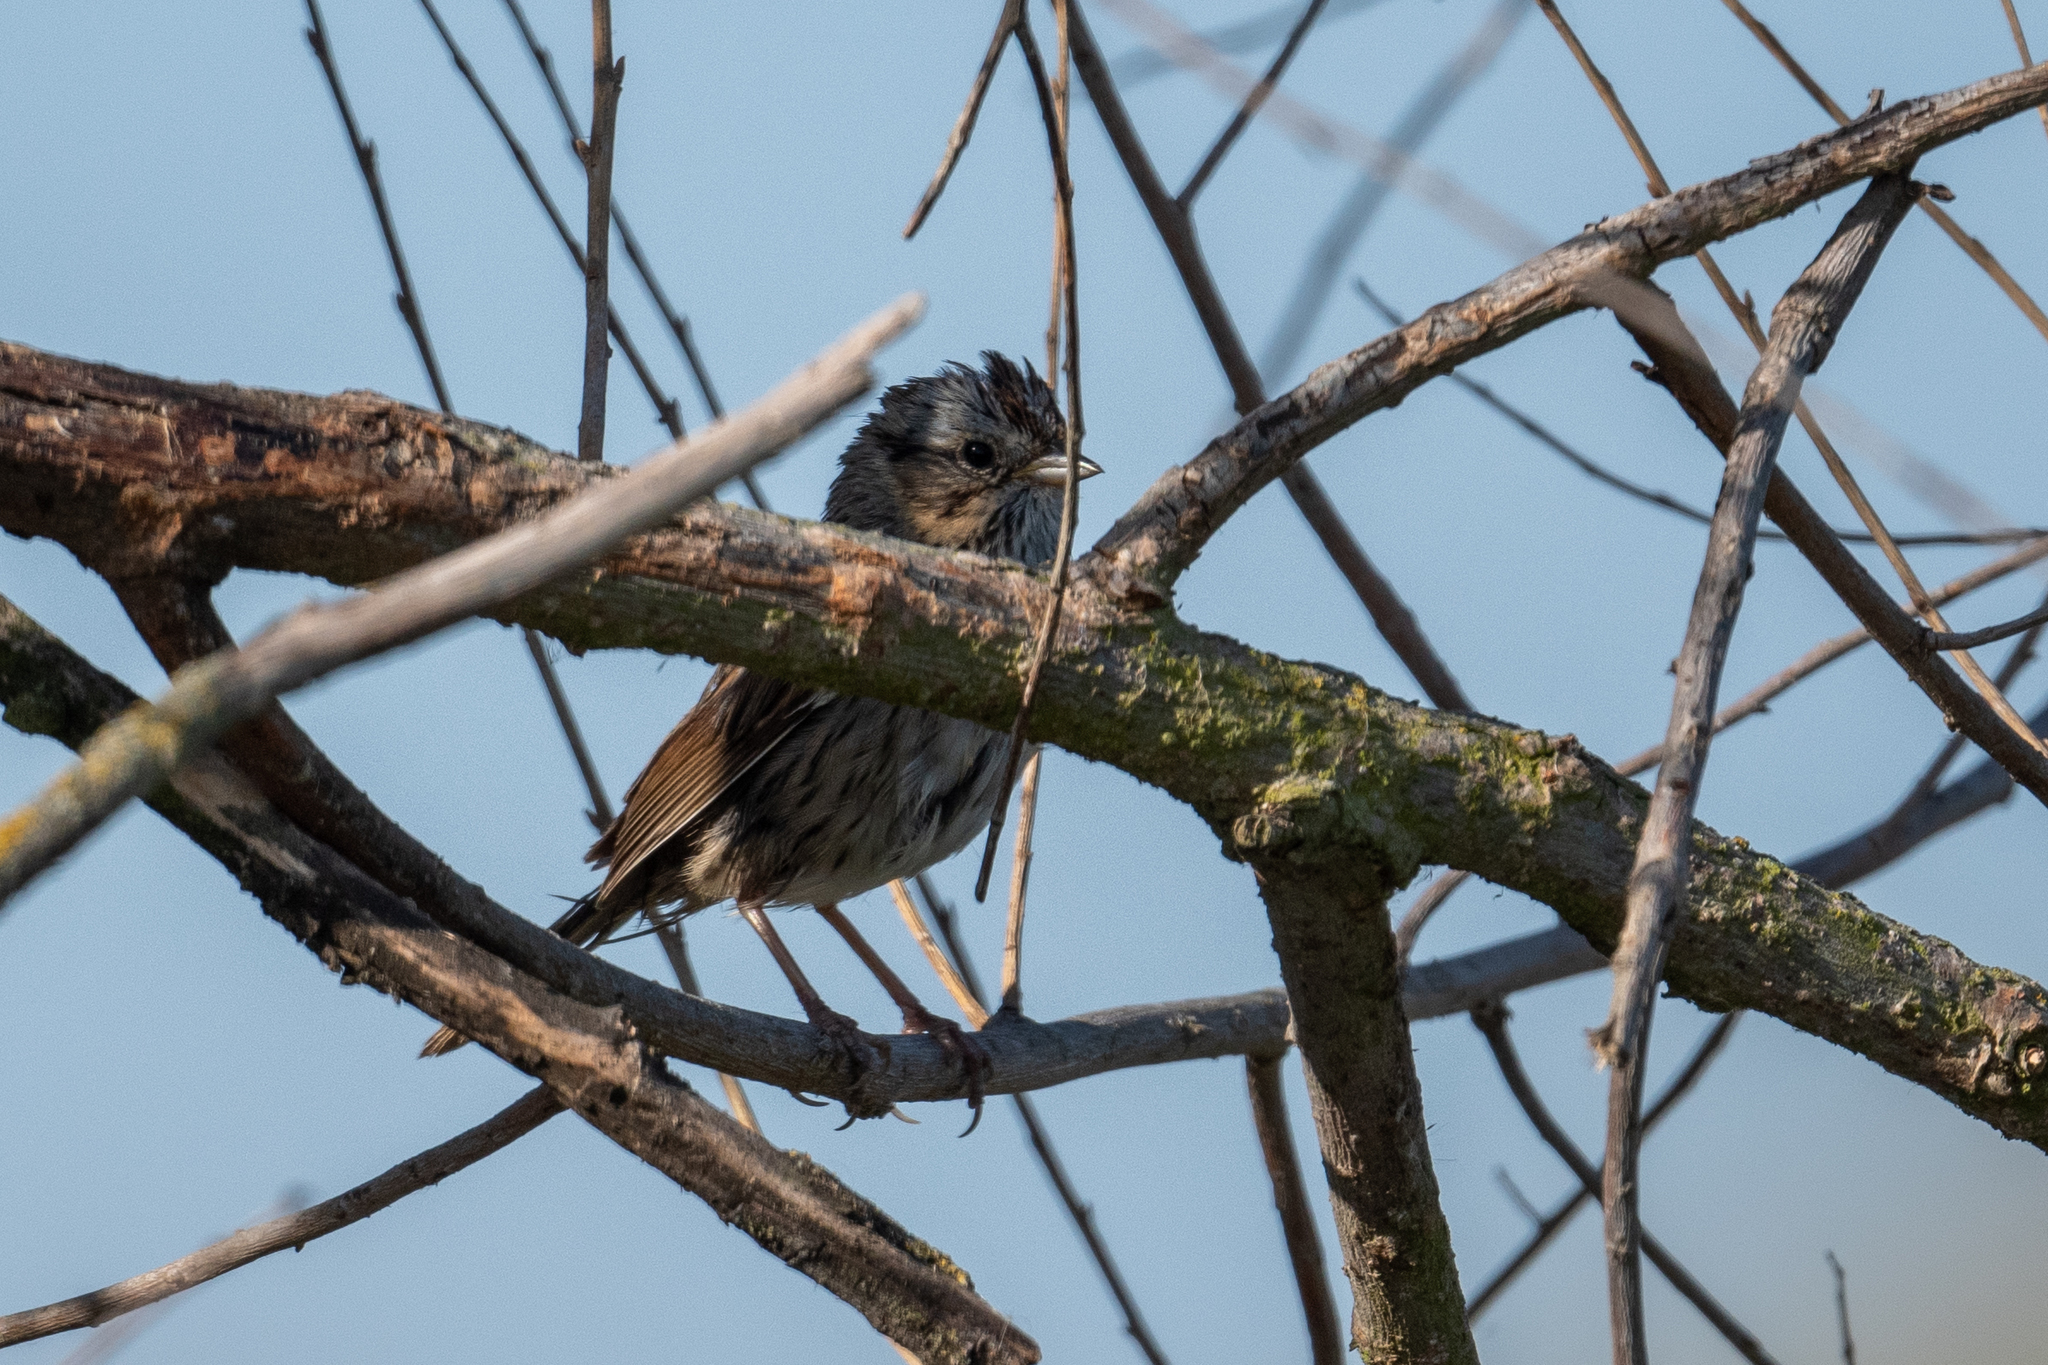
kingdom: Animalia
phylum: Chordata
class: Aves
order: Passeriformes
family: Passerellidae
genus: Melospiza
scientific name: Melospiza lincolnii
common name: Lincoln's sparrow
